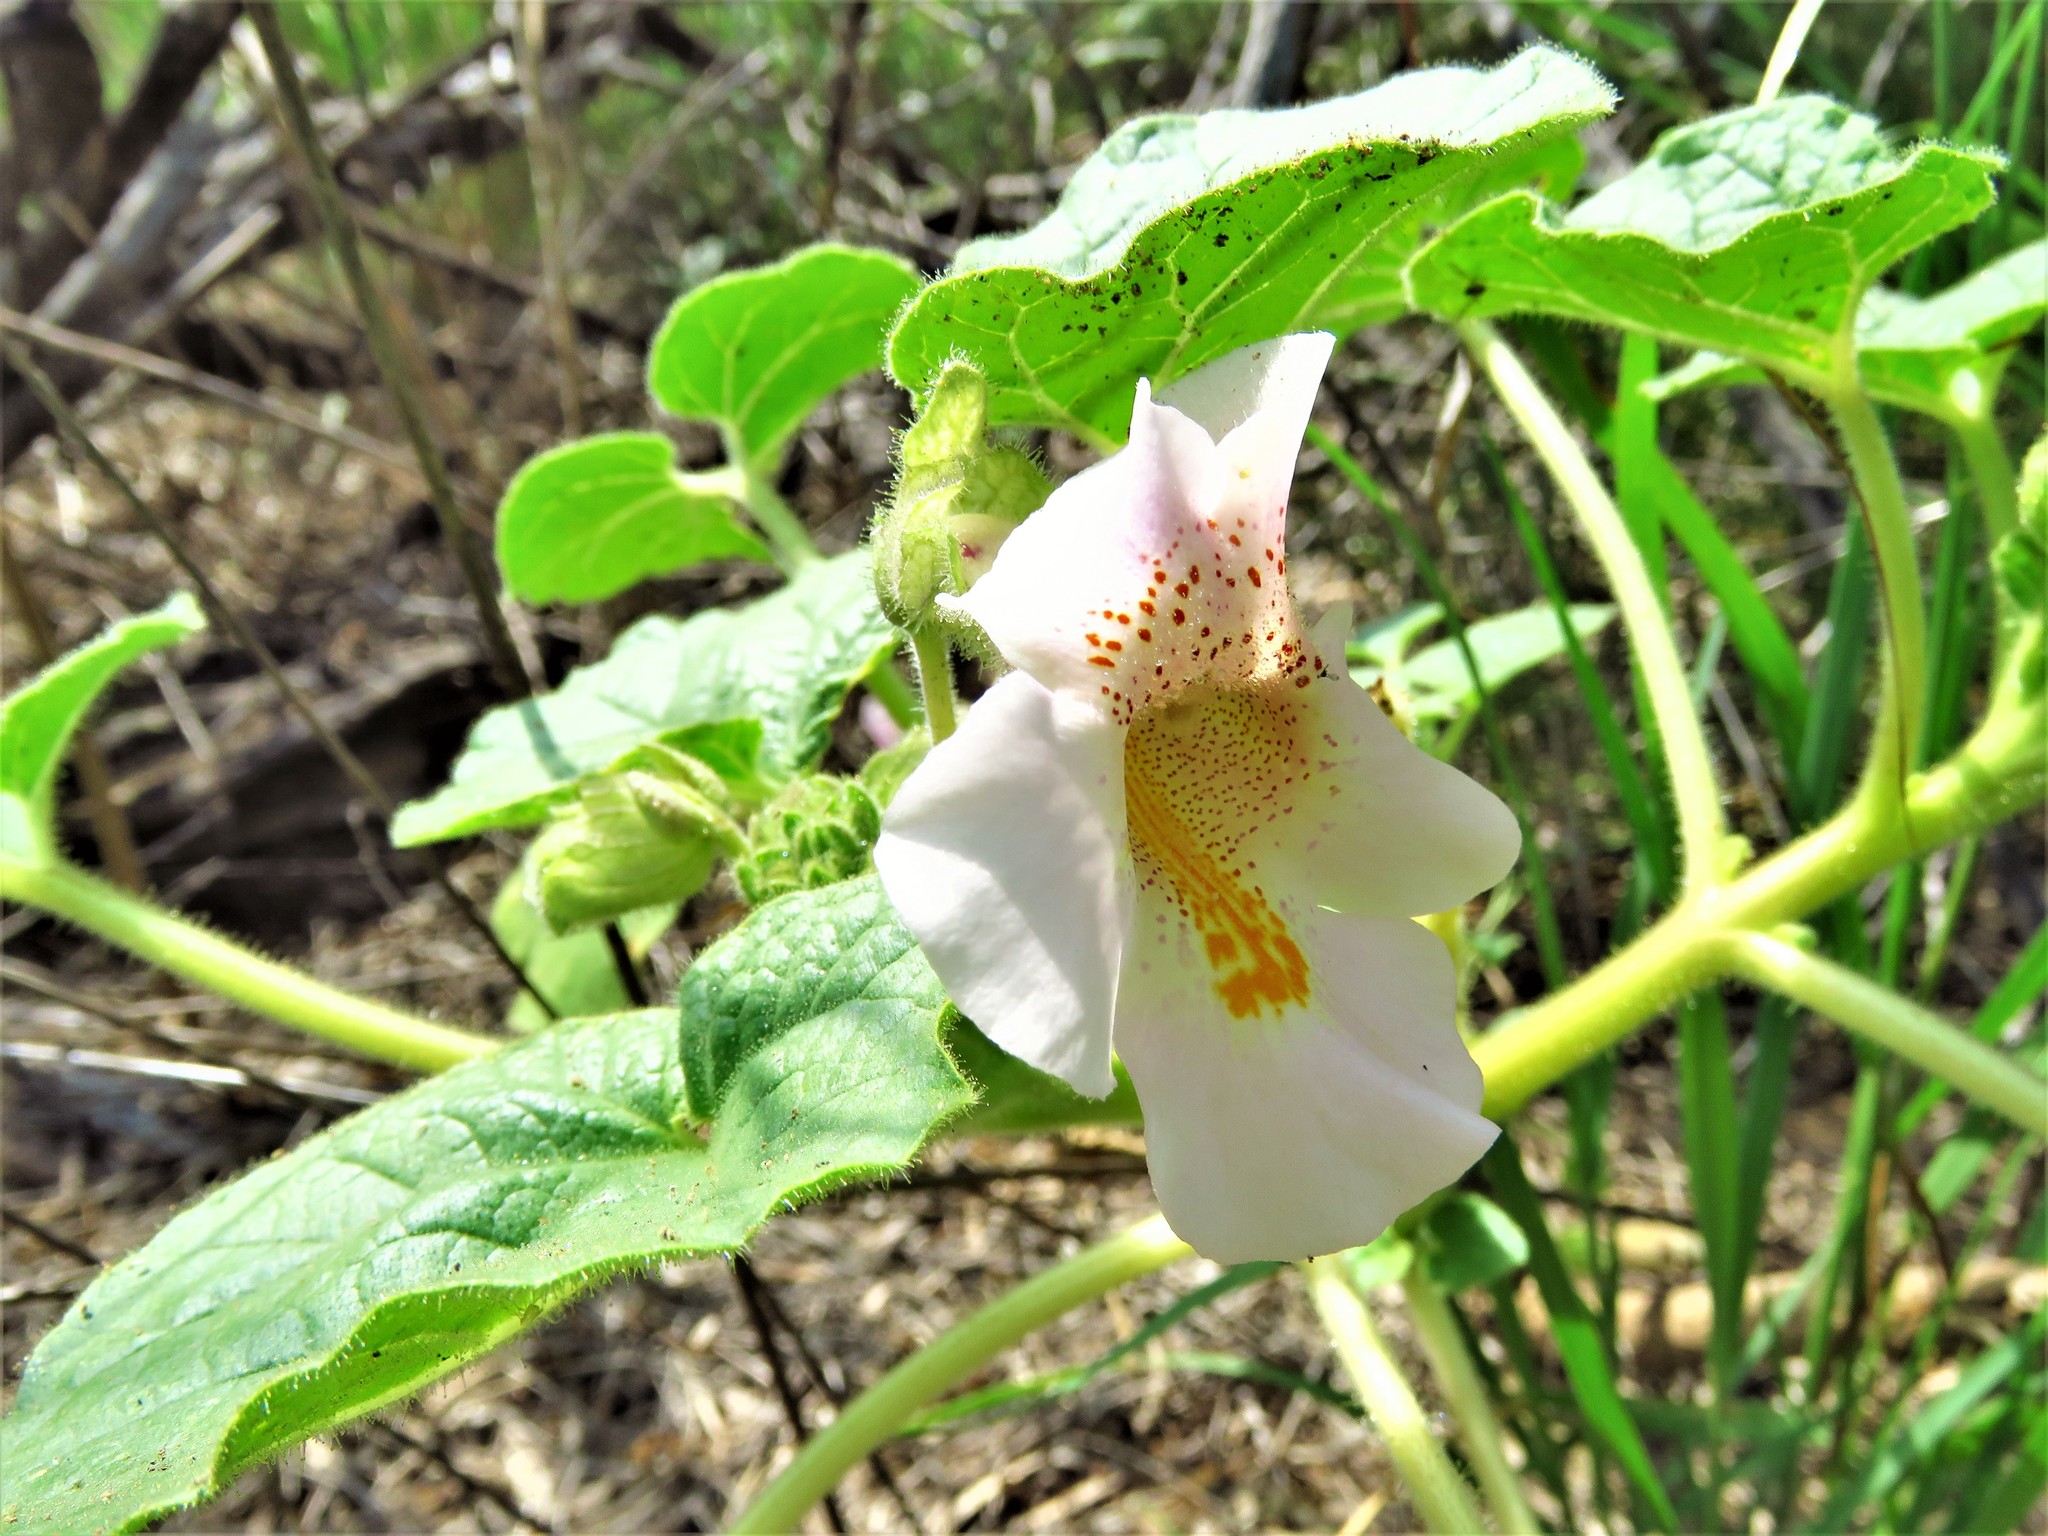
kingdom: Plantae
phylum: Tracheophyta
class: Magnoliopsida
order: Lamiales
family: Martyniaceae
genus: Proboscidea
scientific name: Proboscidea louisianica
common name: Elephant tusks
